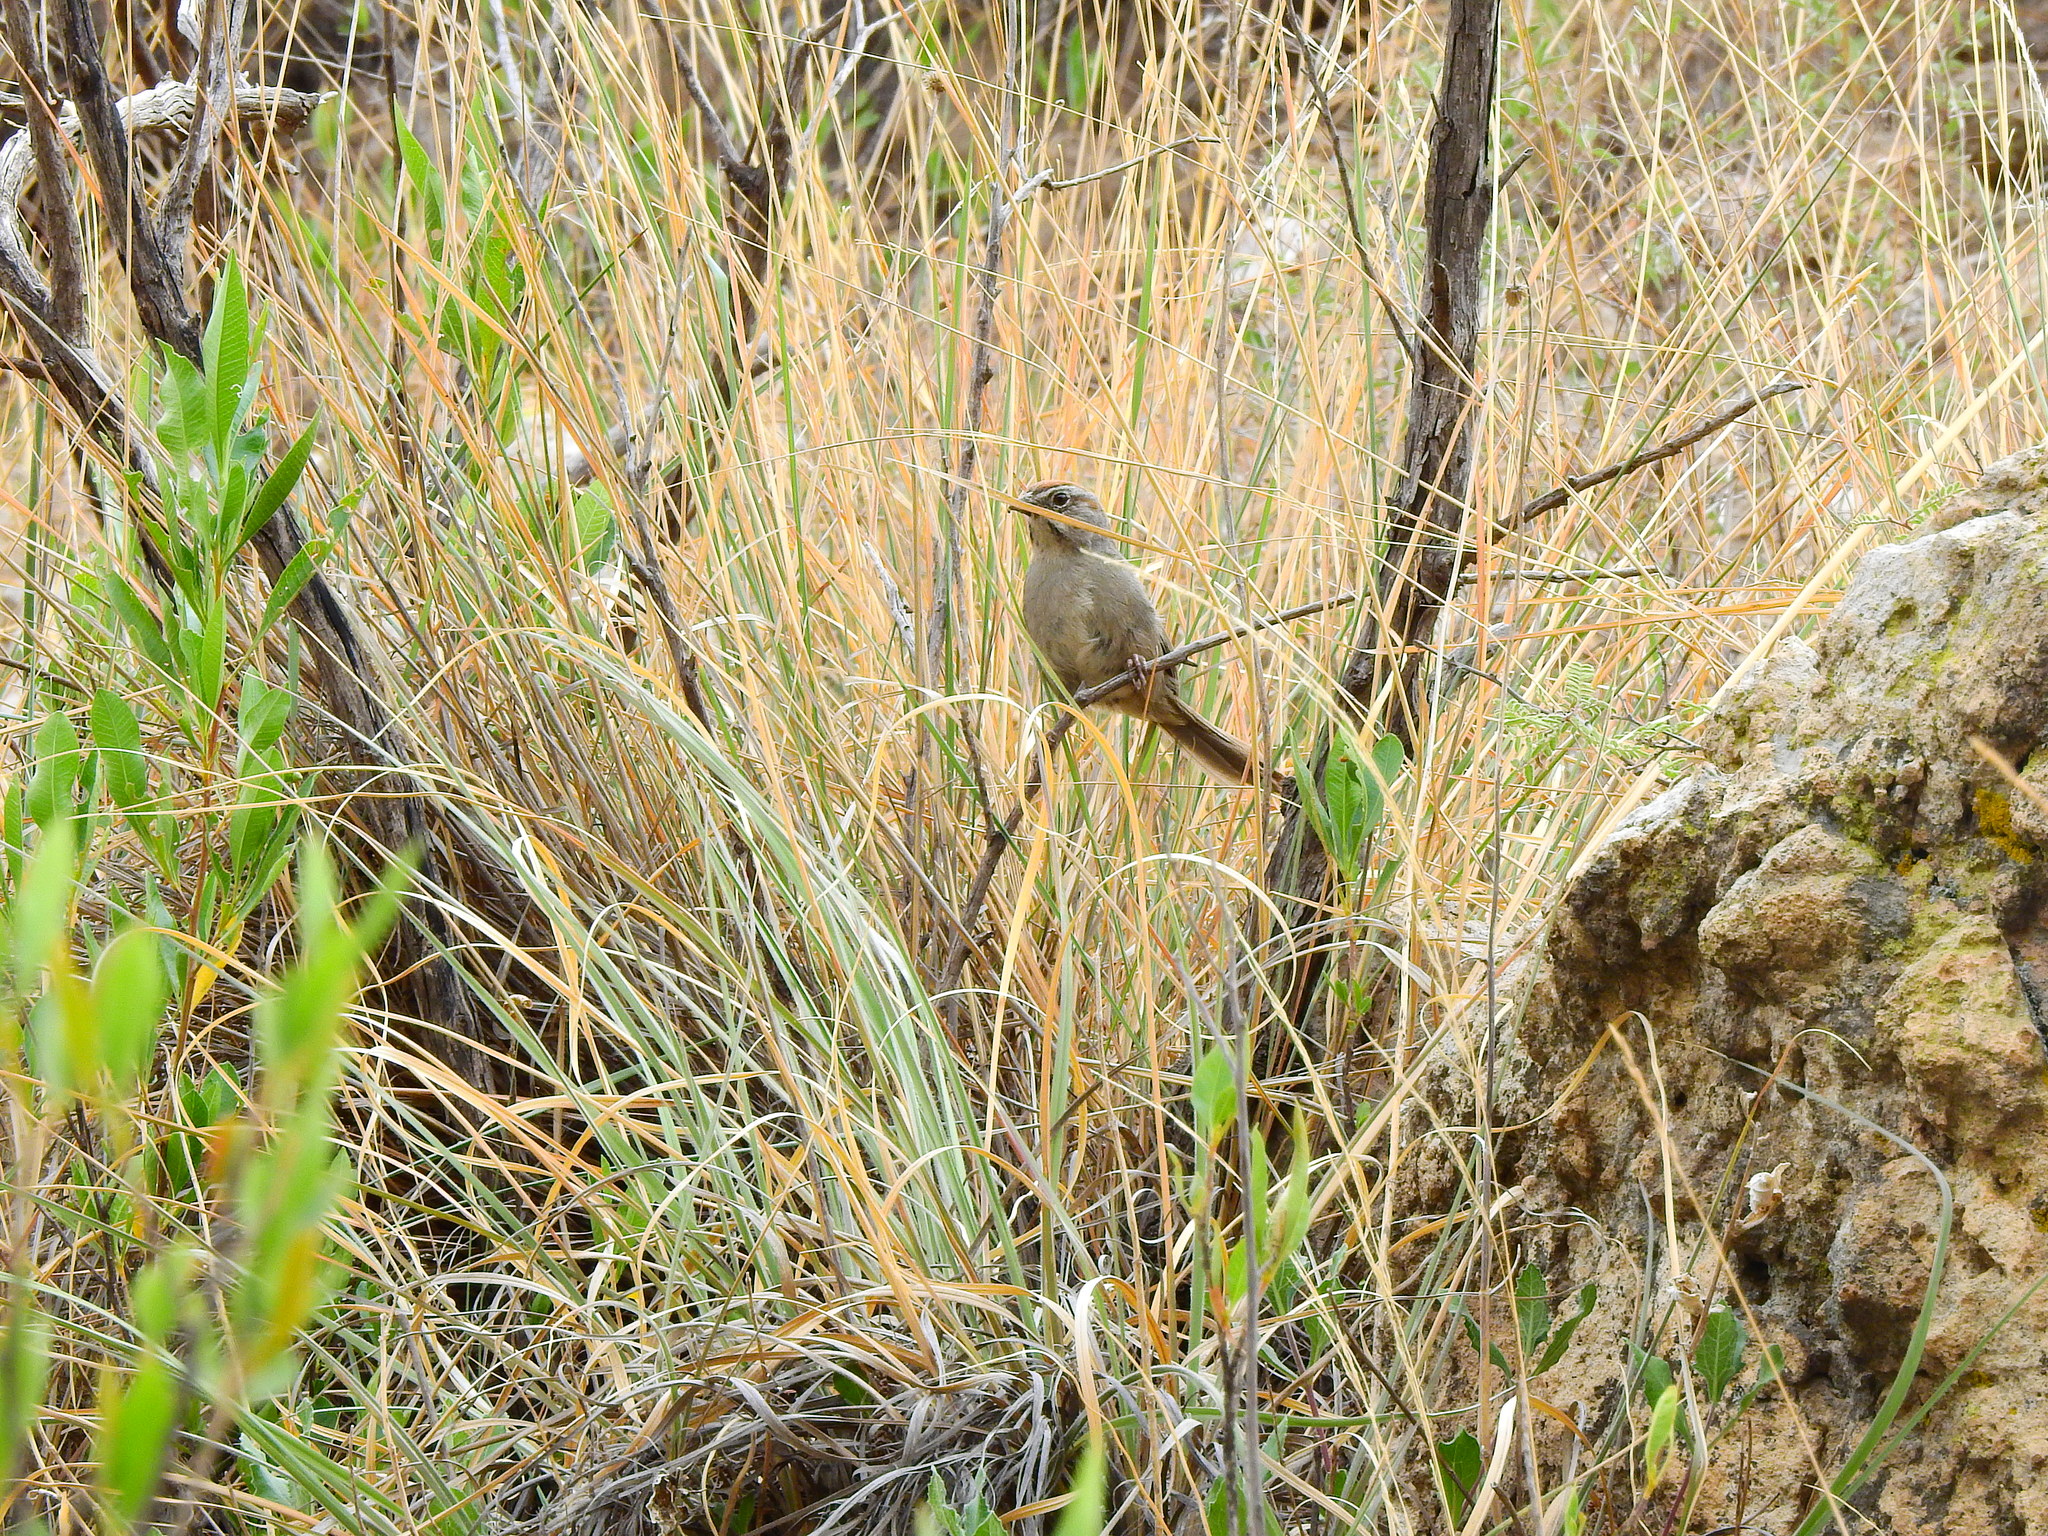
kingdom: Animalia
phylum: Chordata
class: Aves
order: Passeriformes
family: Passerellidae
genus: Aimophila
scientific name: Aimophila ruficeps
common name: Rufous-crowned sparrow
